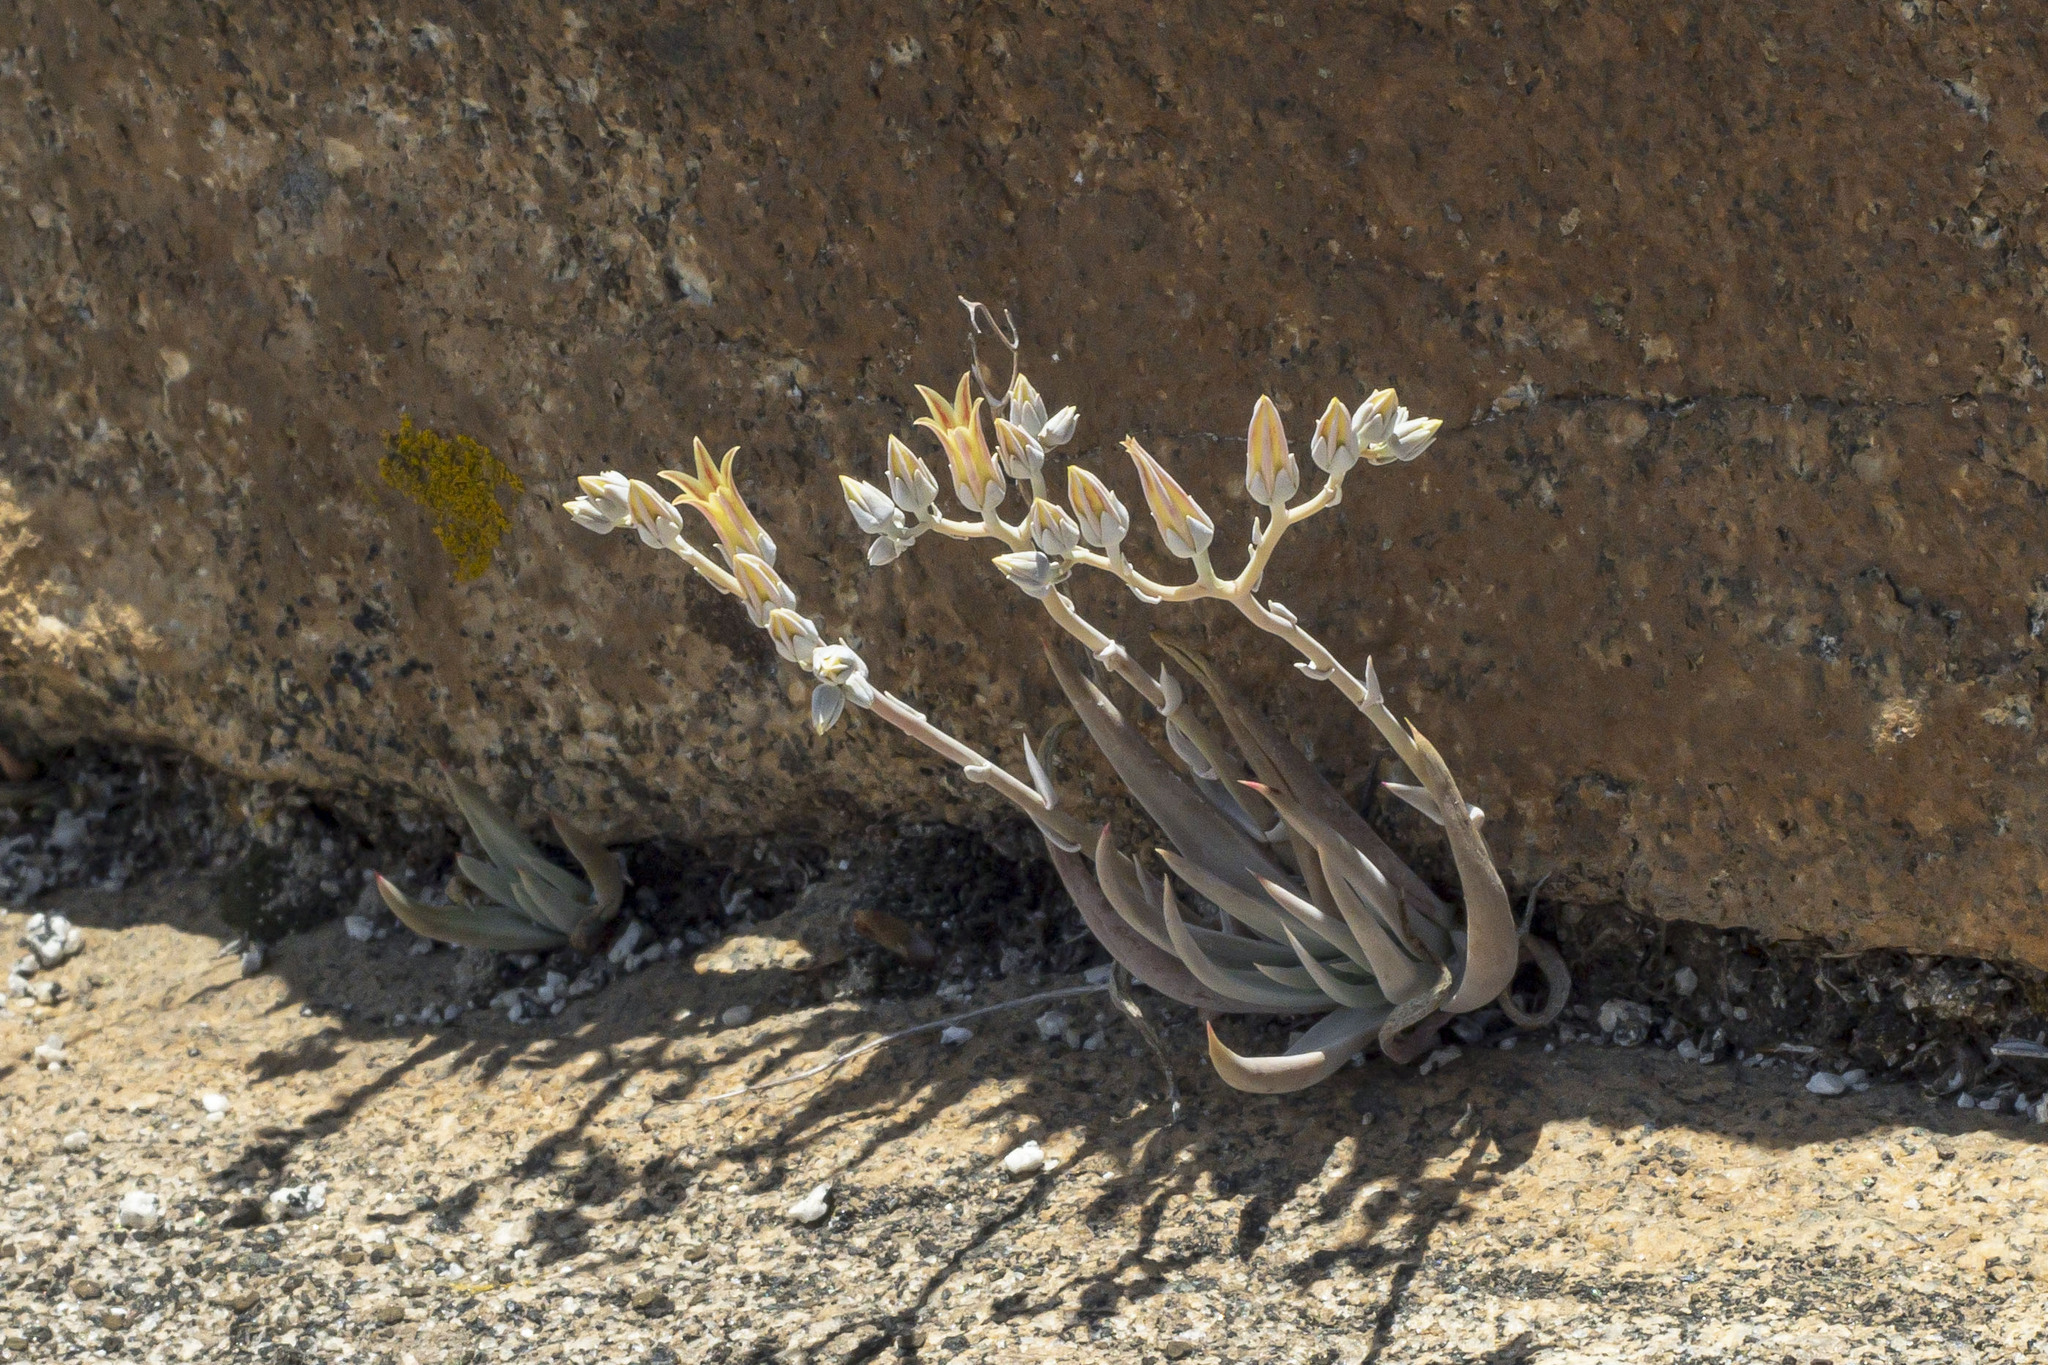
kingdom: Plantae
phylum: Tracheophyta
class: Magnoliopsida
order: Saxifragales
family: Crassulaceae
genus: Dudleya
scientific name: Dudleya abramsii
